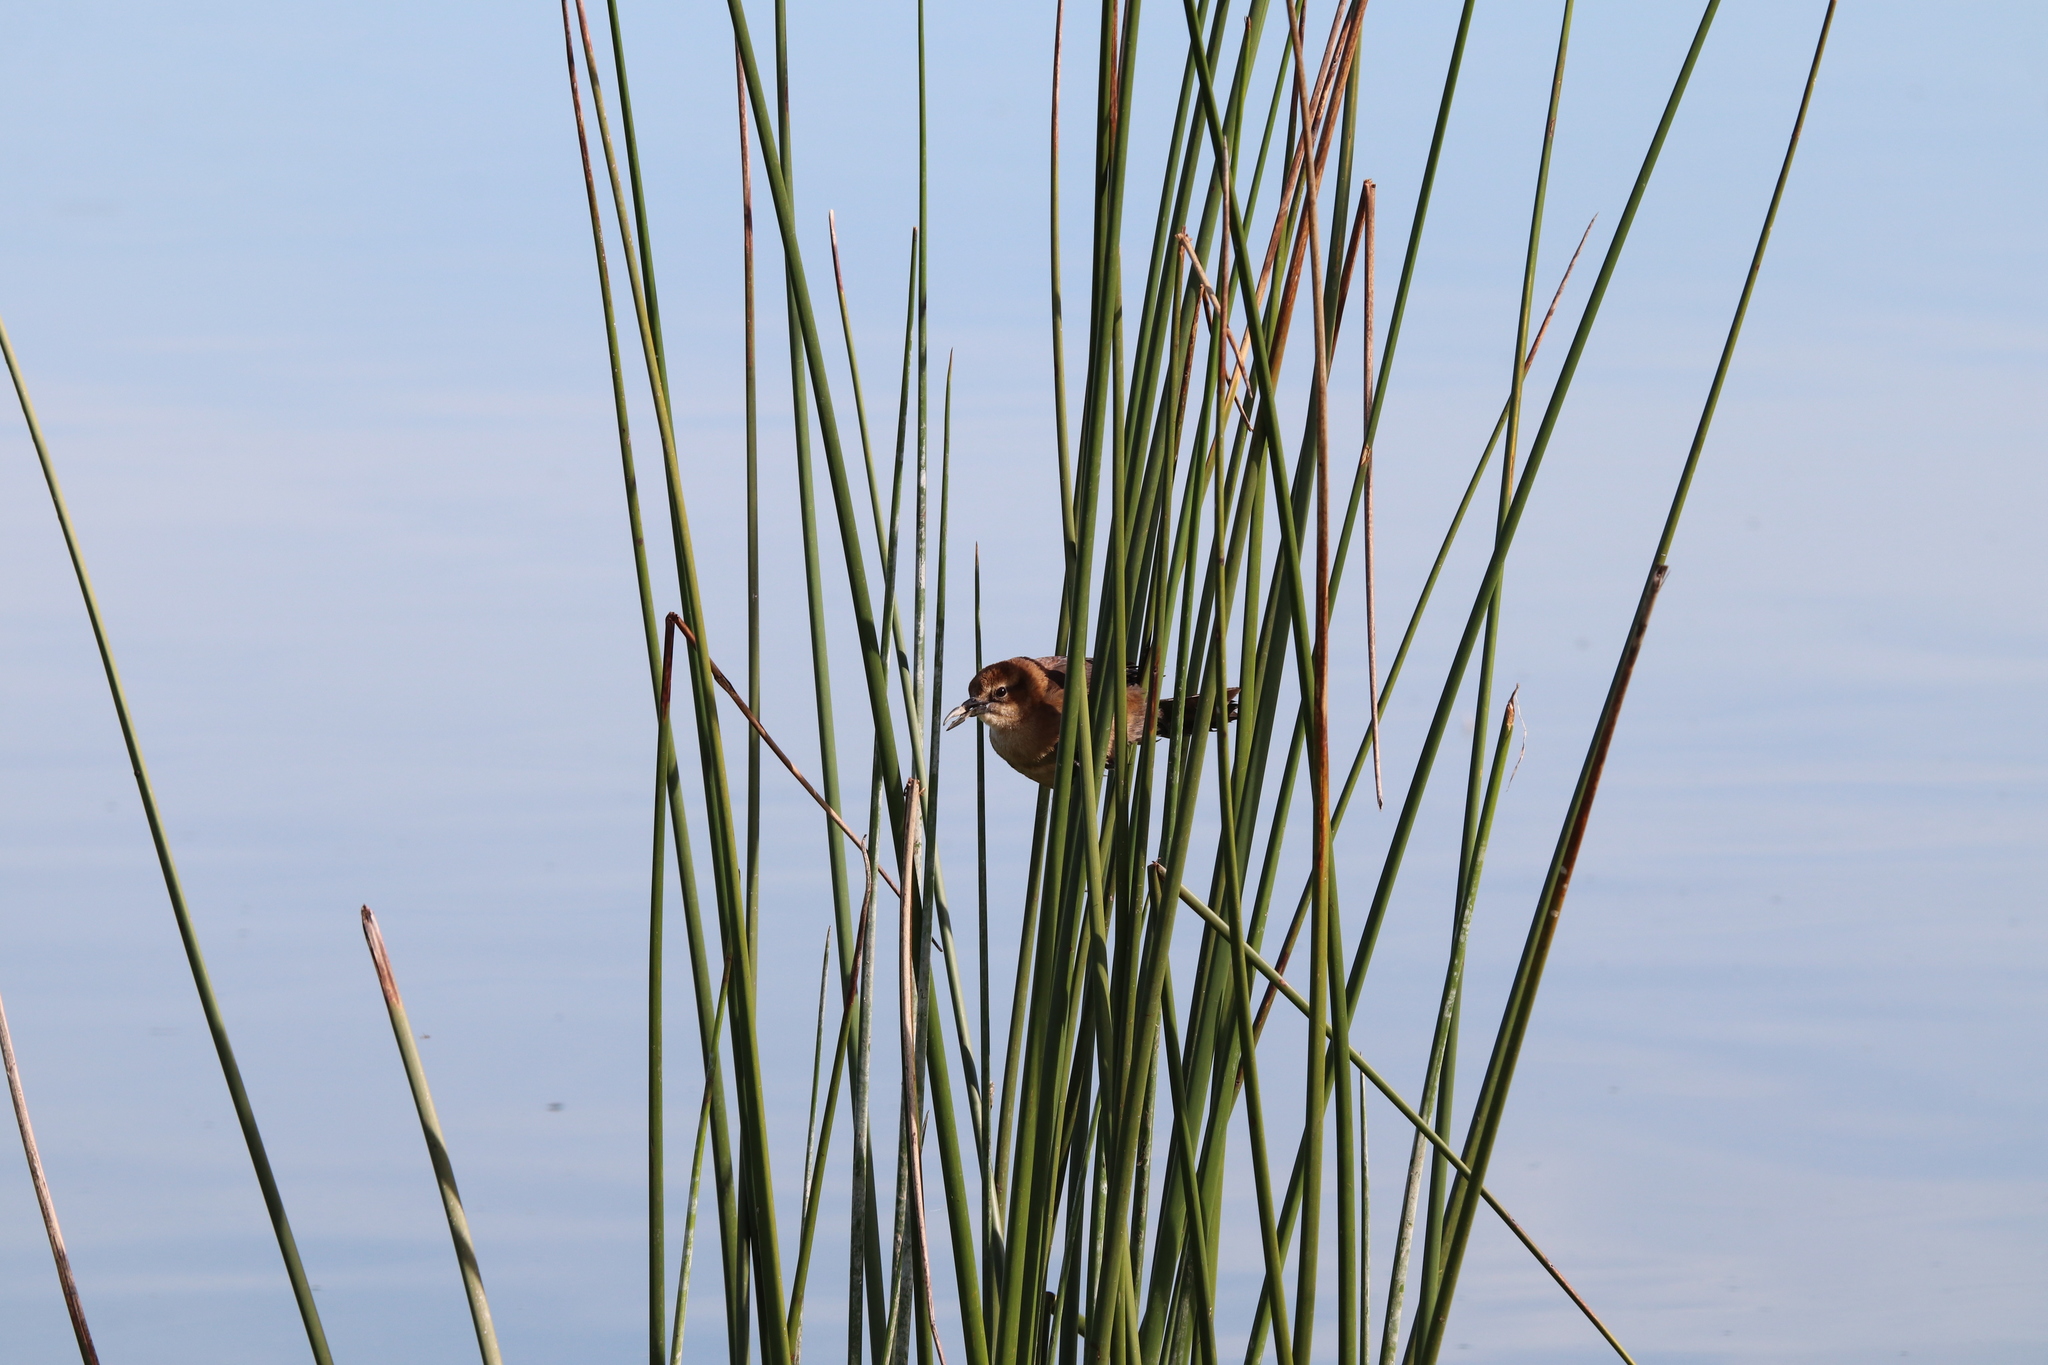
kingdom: Animalia
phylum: Chordata
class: Aves
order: Passeriformes
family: Icteridae
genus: Quiscalus
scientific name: Quiscalus major
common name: Boat-tailed grackle
